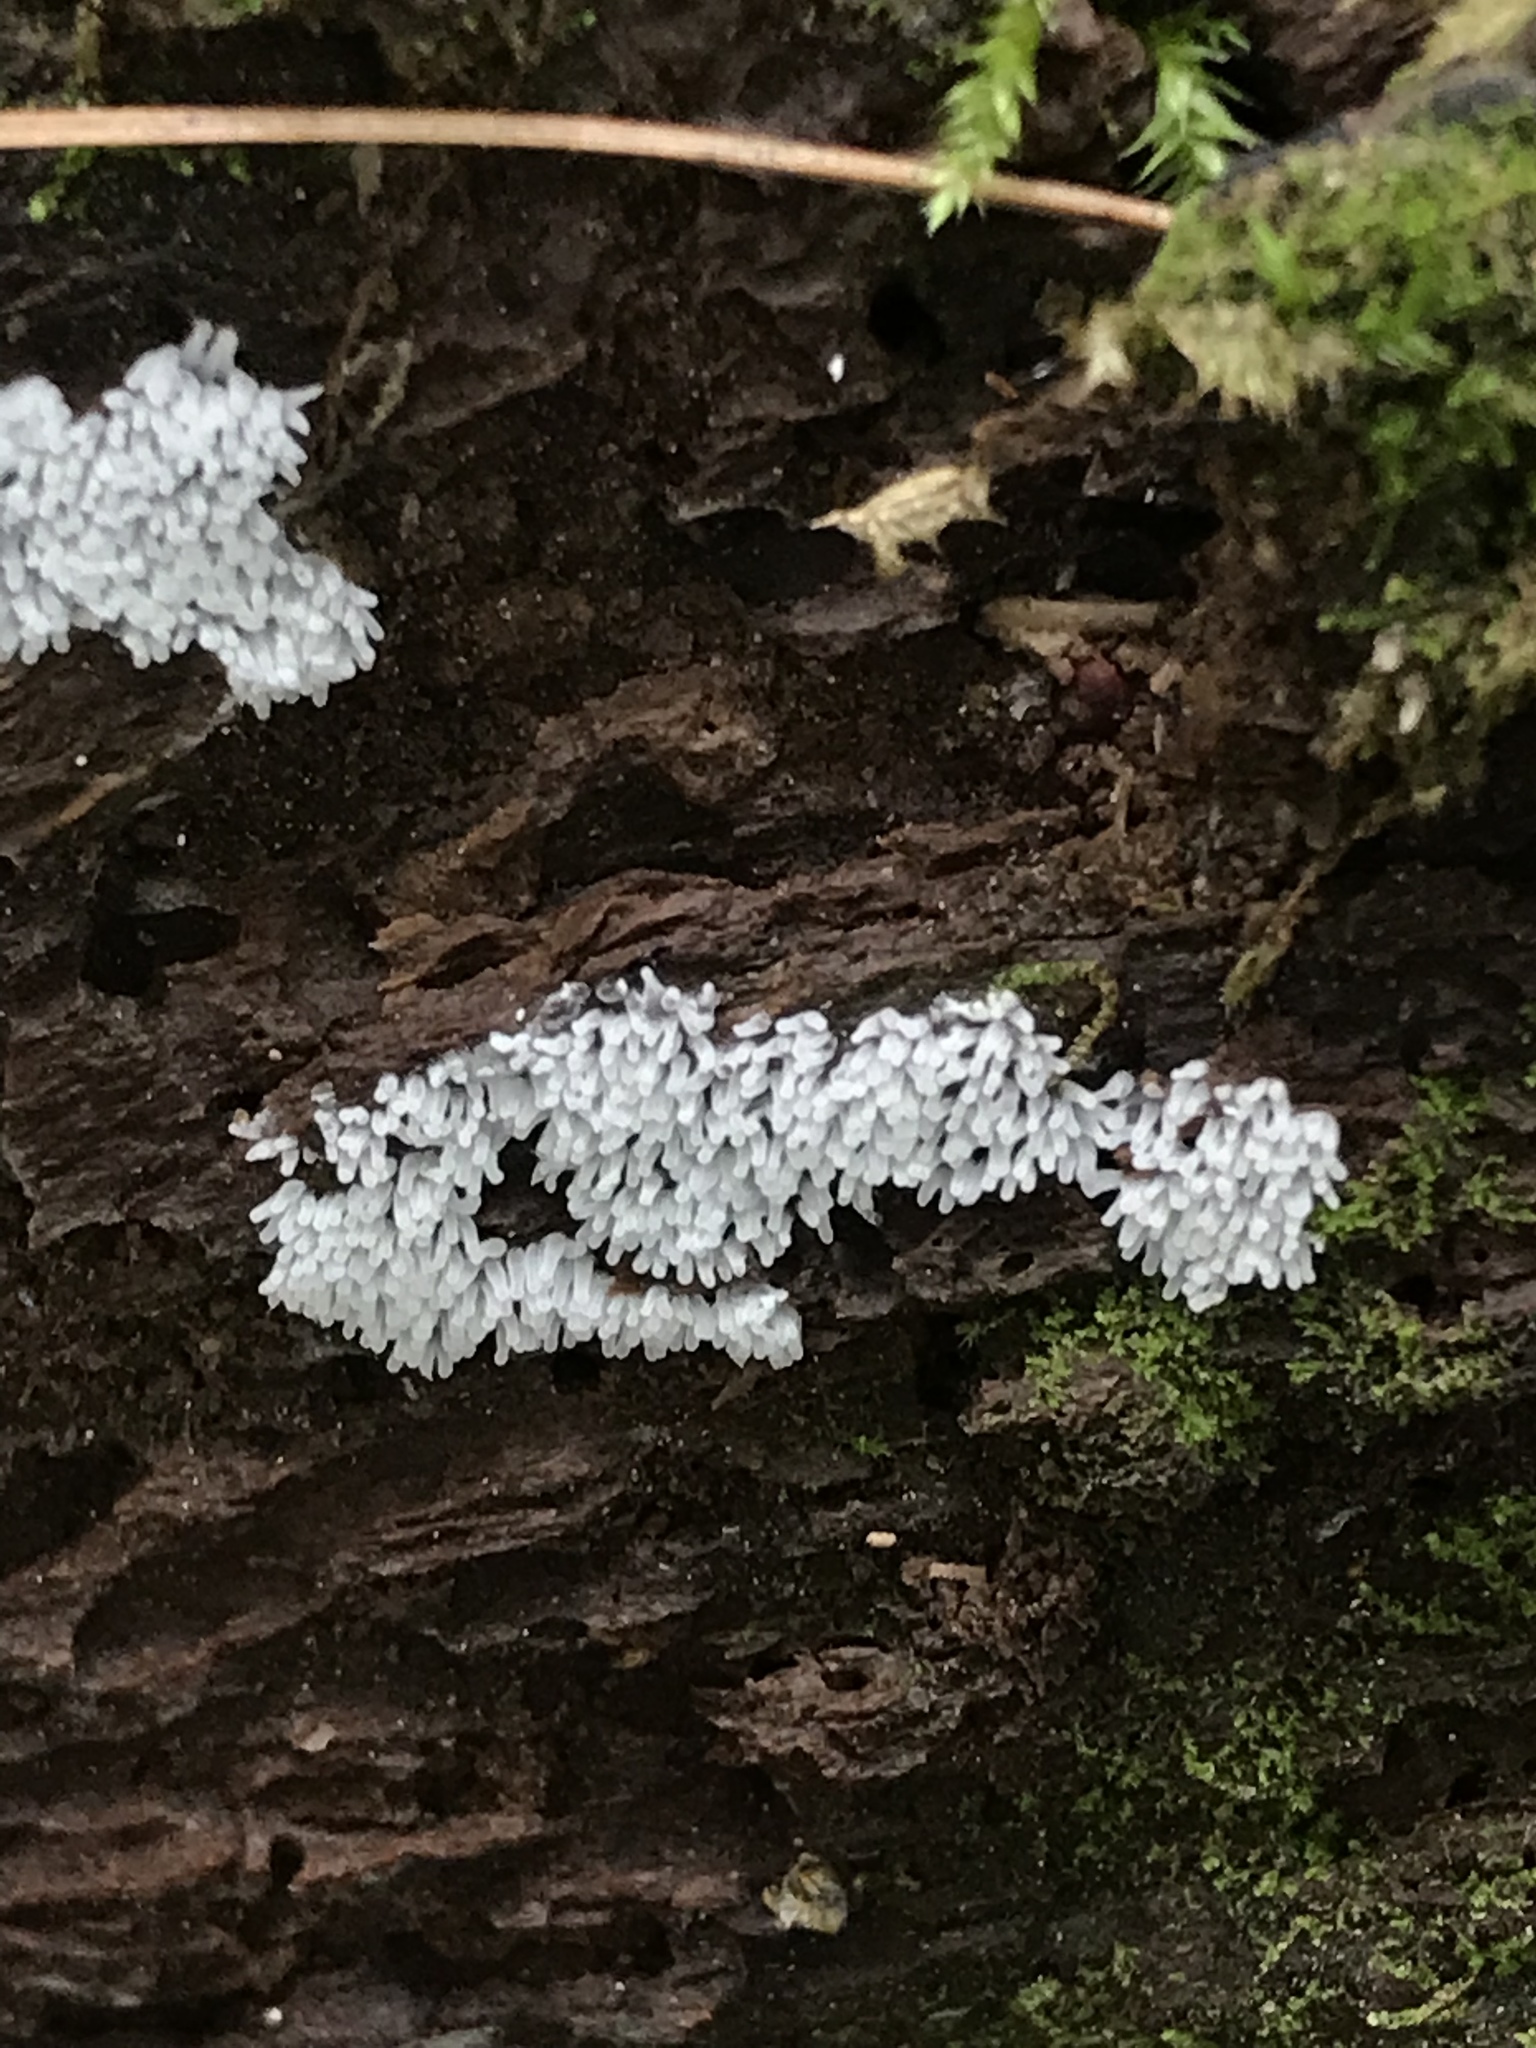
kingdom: Protozoa
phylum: Mycetozoa
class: Protosteliomycetes
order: Ceratiomyxales
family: Ceratiomyxaceae
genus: Ceratiomyxa
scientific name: Ceratiomyxa fruticulosa
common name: Honeycomb coral slime mold
